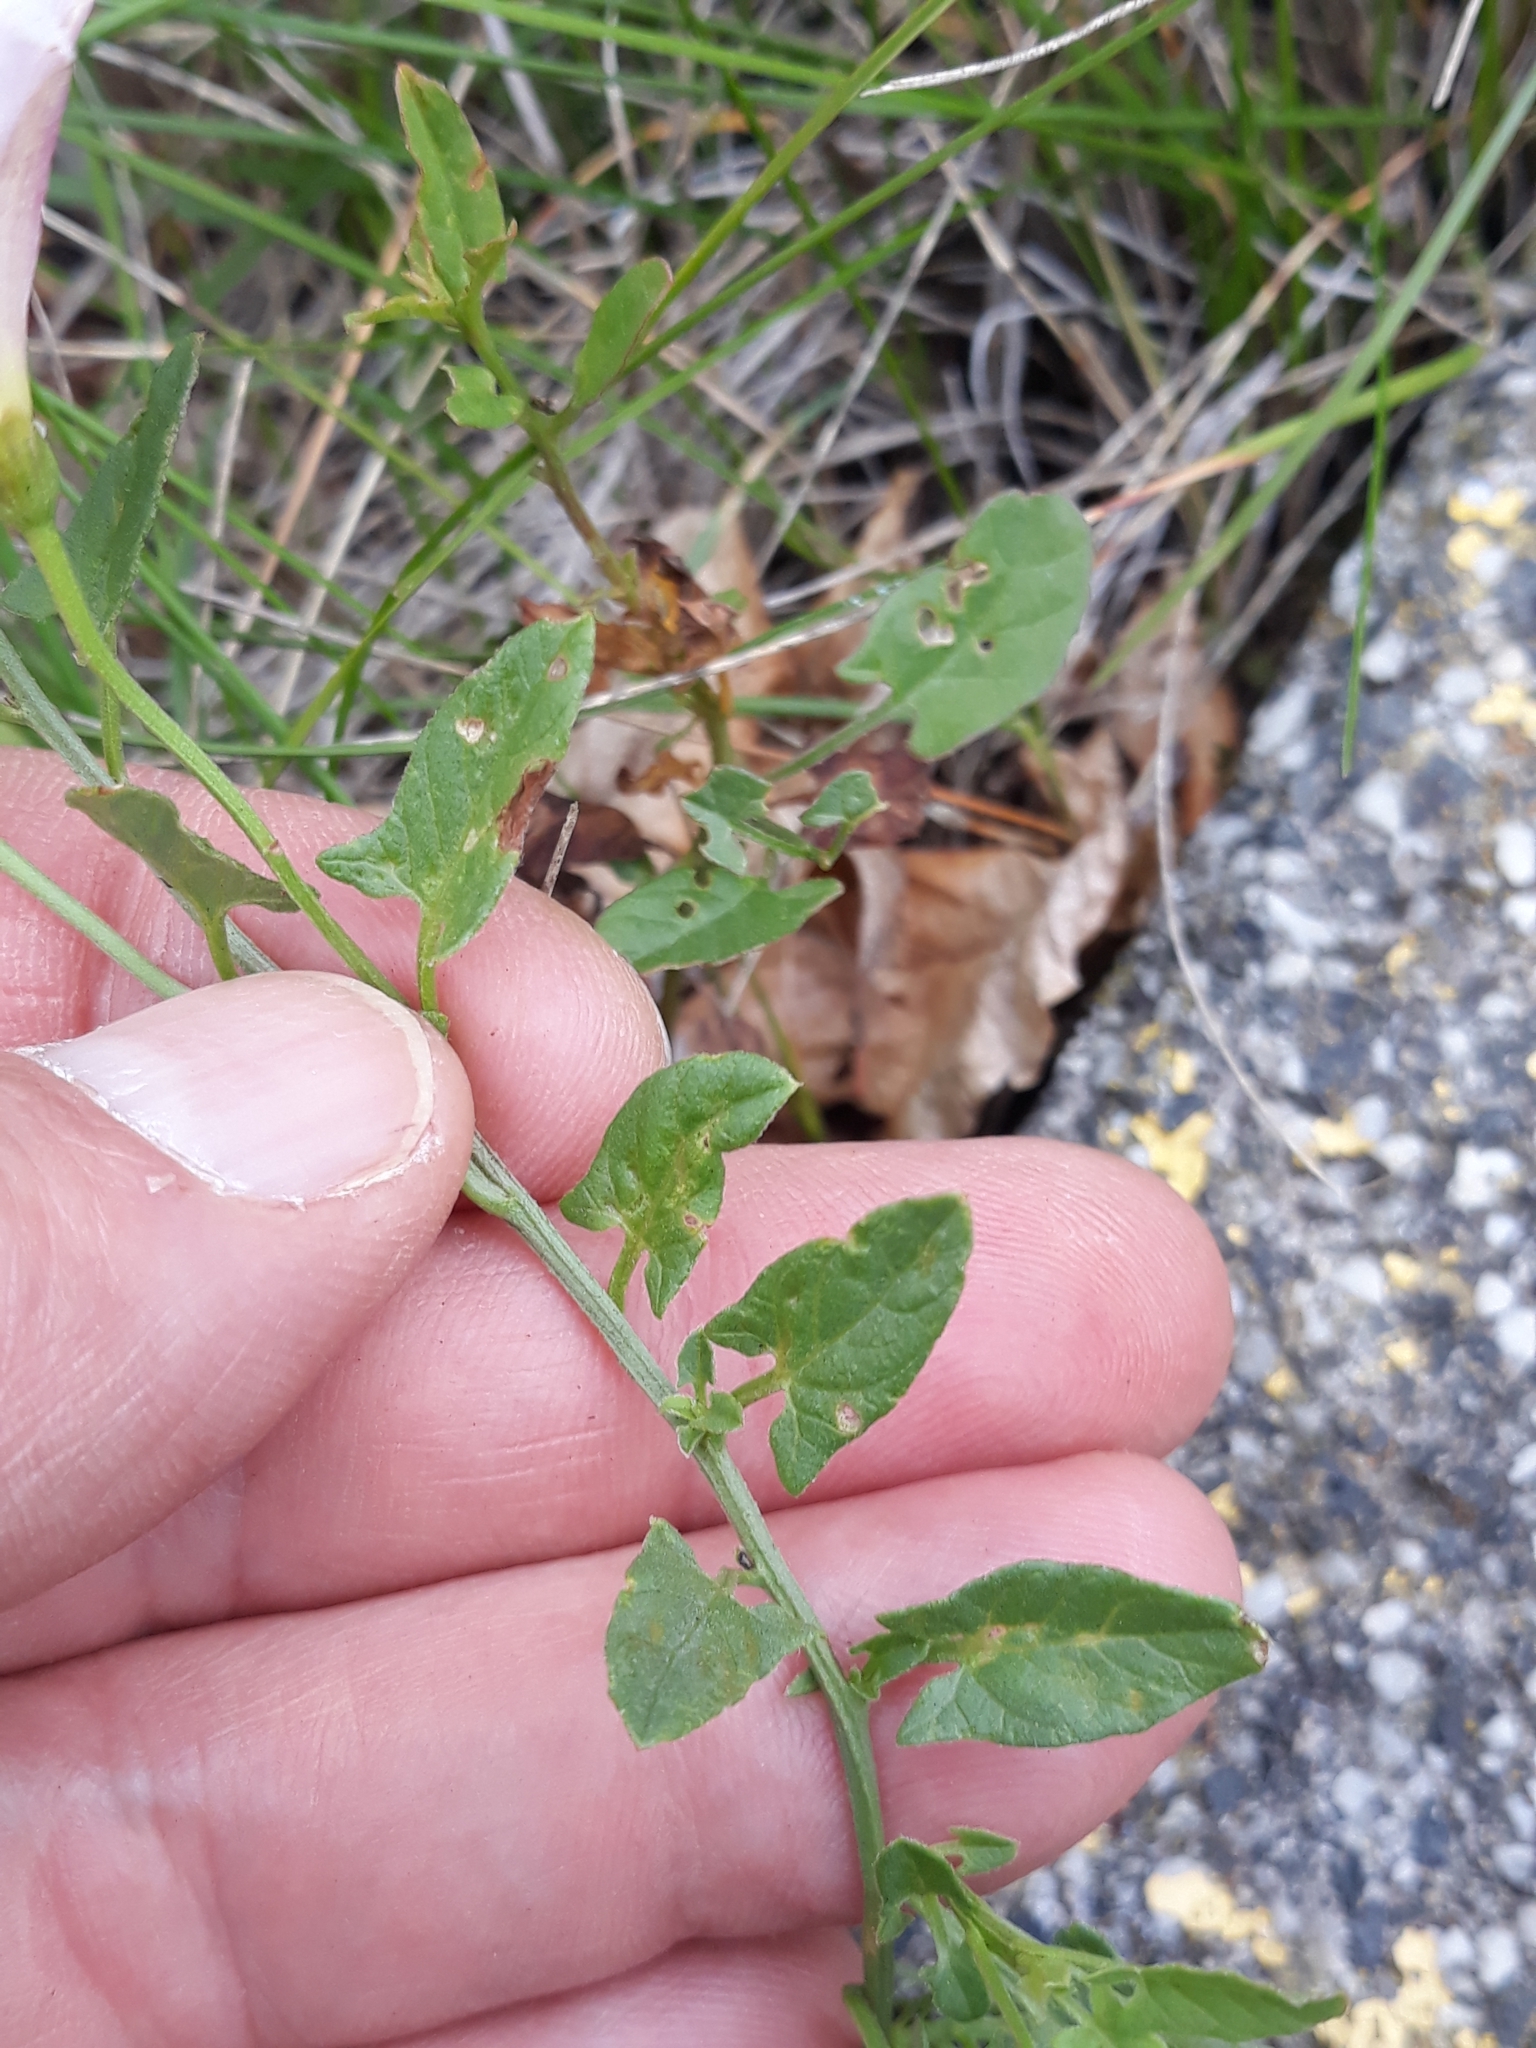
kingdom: Plantae
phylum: Tracheophyta
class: Magnoliopsida
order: Solanales
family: Convolvulaceae
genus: Convolvulus
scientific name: Convolvulus arvensis
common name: Field bindweed
